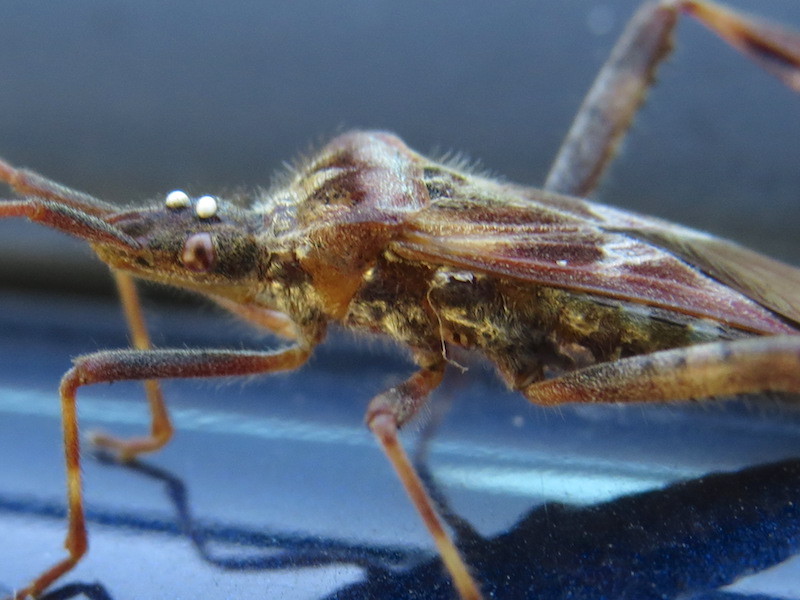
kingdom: Animalia
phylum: Arthropoda
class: Insecta
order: Hemiptera
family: Coreidae
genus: Leptoglossus
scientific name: Leptoglossus occidentalis
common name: Western conifer-seed bug
